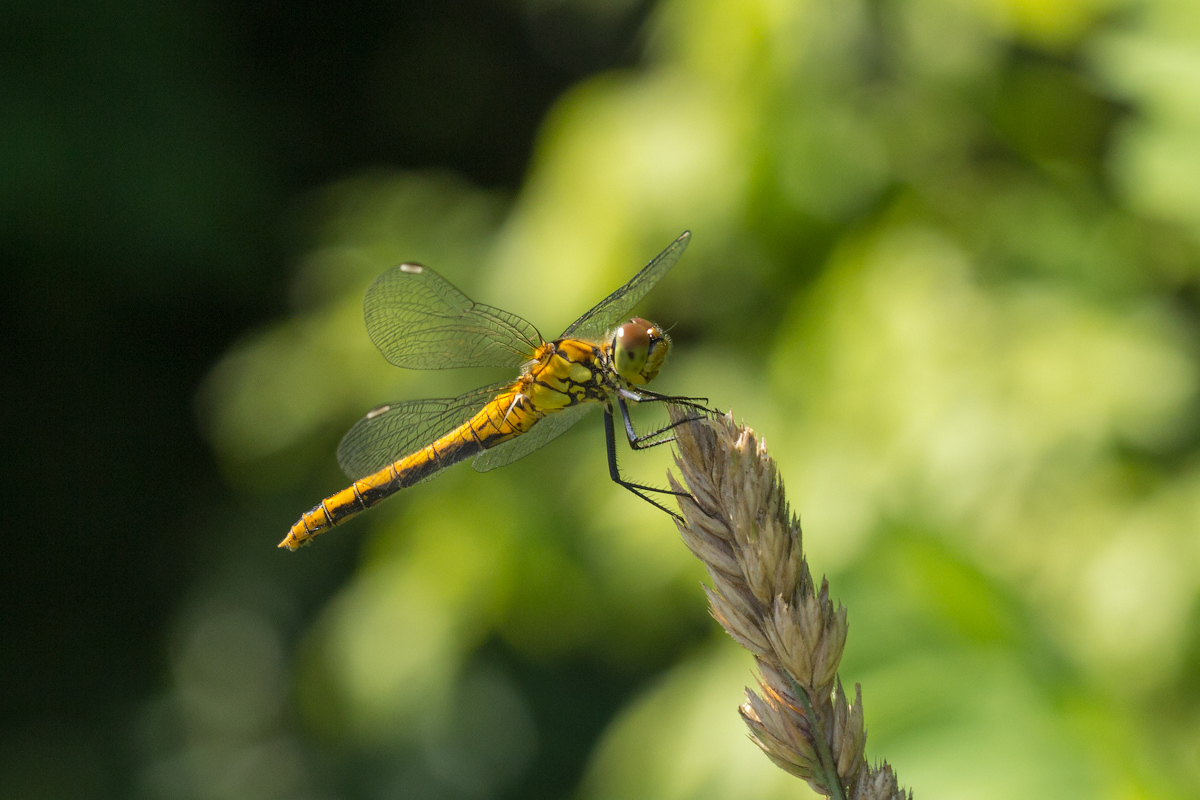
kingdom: Animalia
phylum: Arthropoda
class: Insecta
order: Odonata
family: Libellulidae
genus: Sympetrum
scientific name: Sympetrum sanguineum
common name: Ruddy darter
